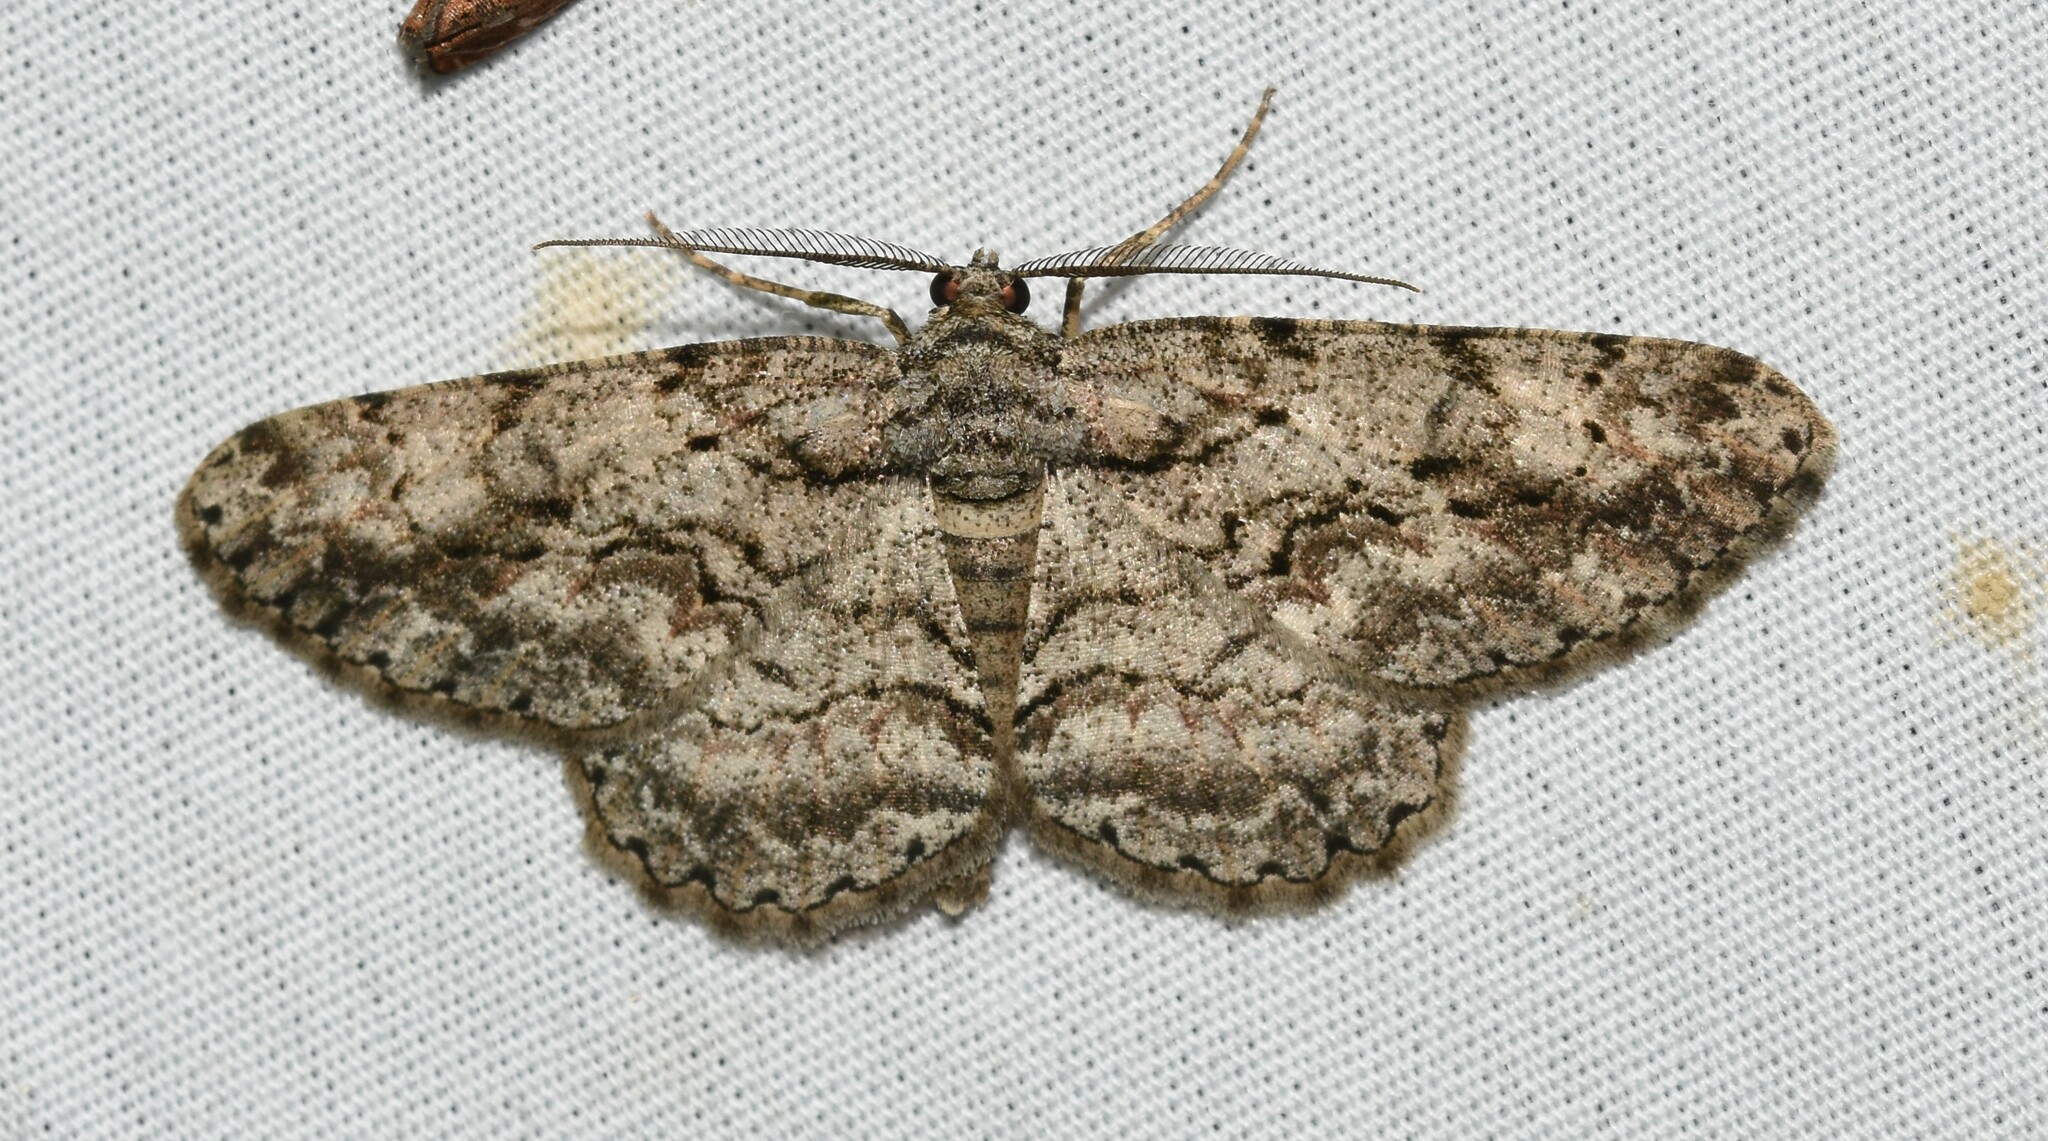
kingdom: Animalia
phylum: Arthropoda
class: Insecta
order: Lepidoptera
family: Geometridae
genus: Anavitrinella
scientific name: Anavitrinella pampinaria
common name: Common gray
